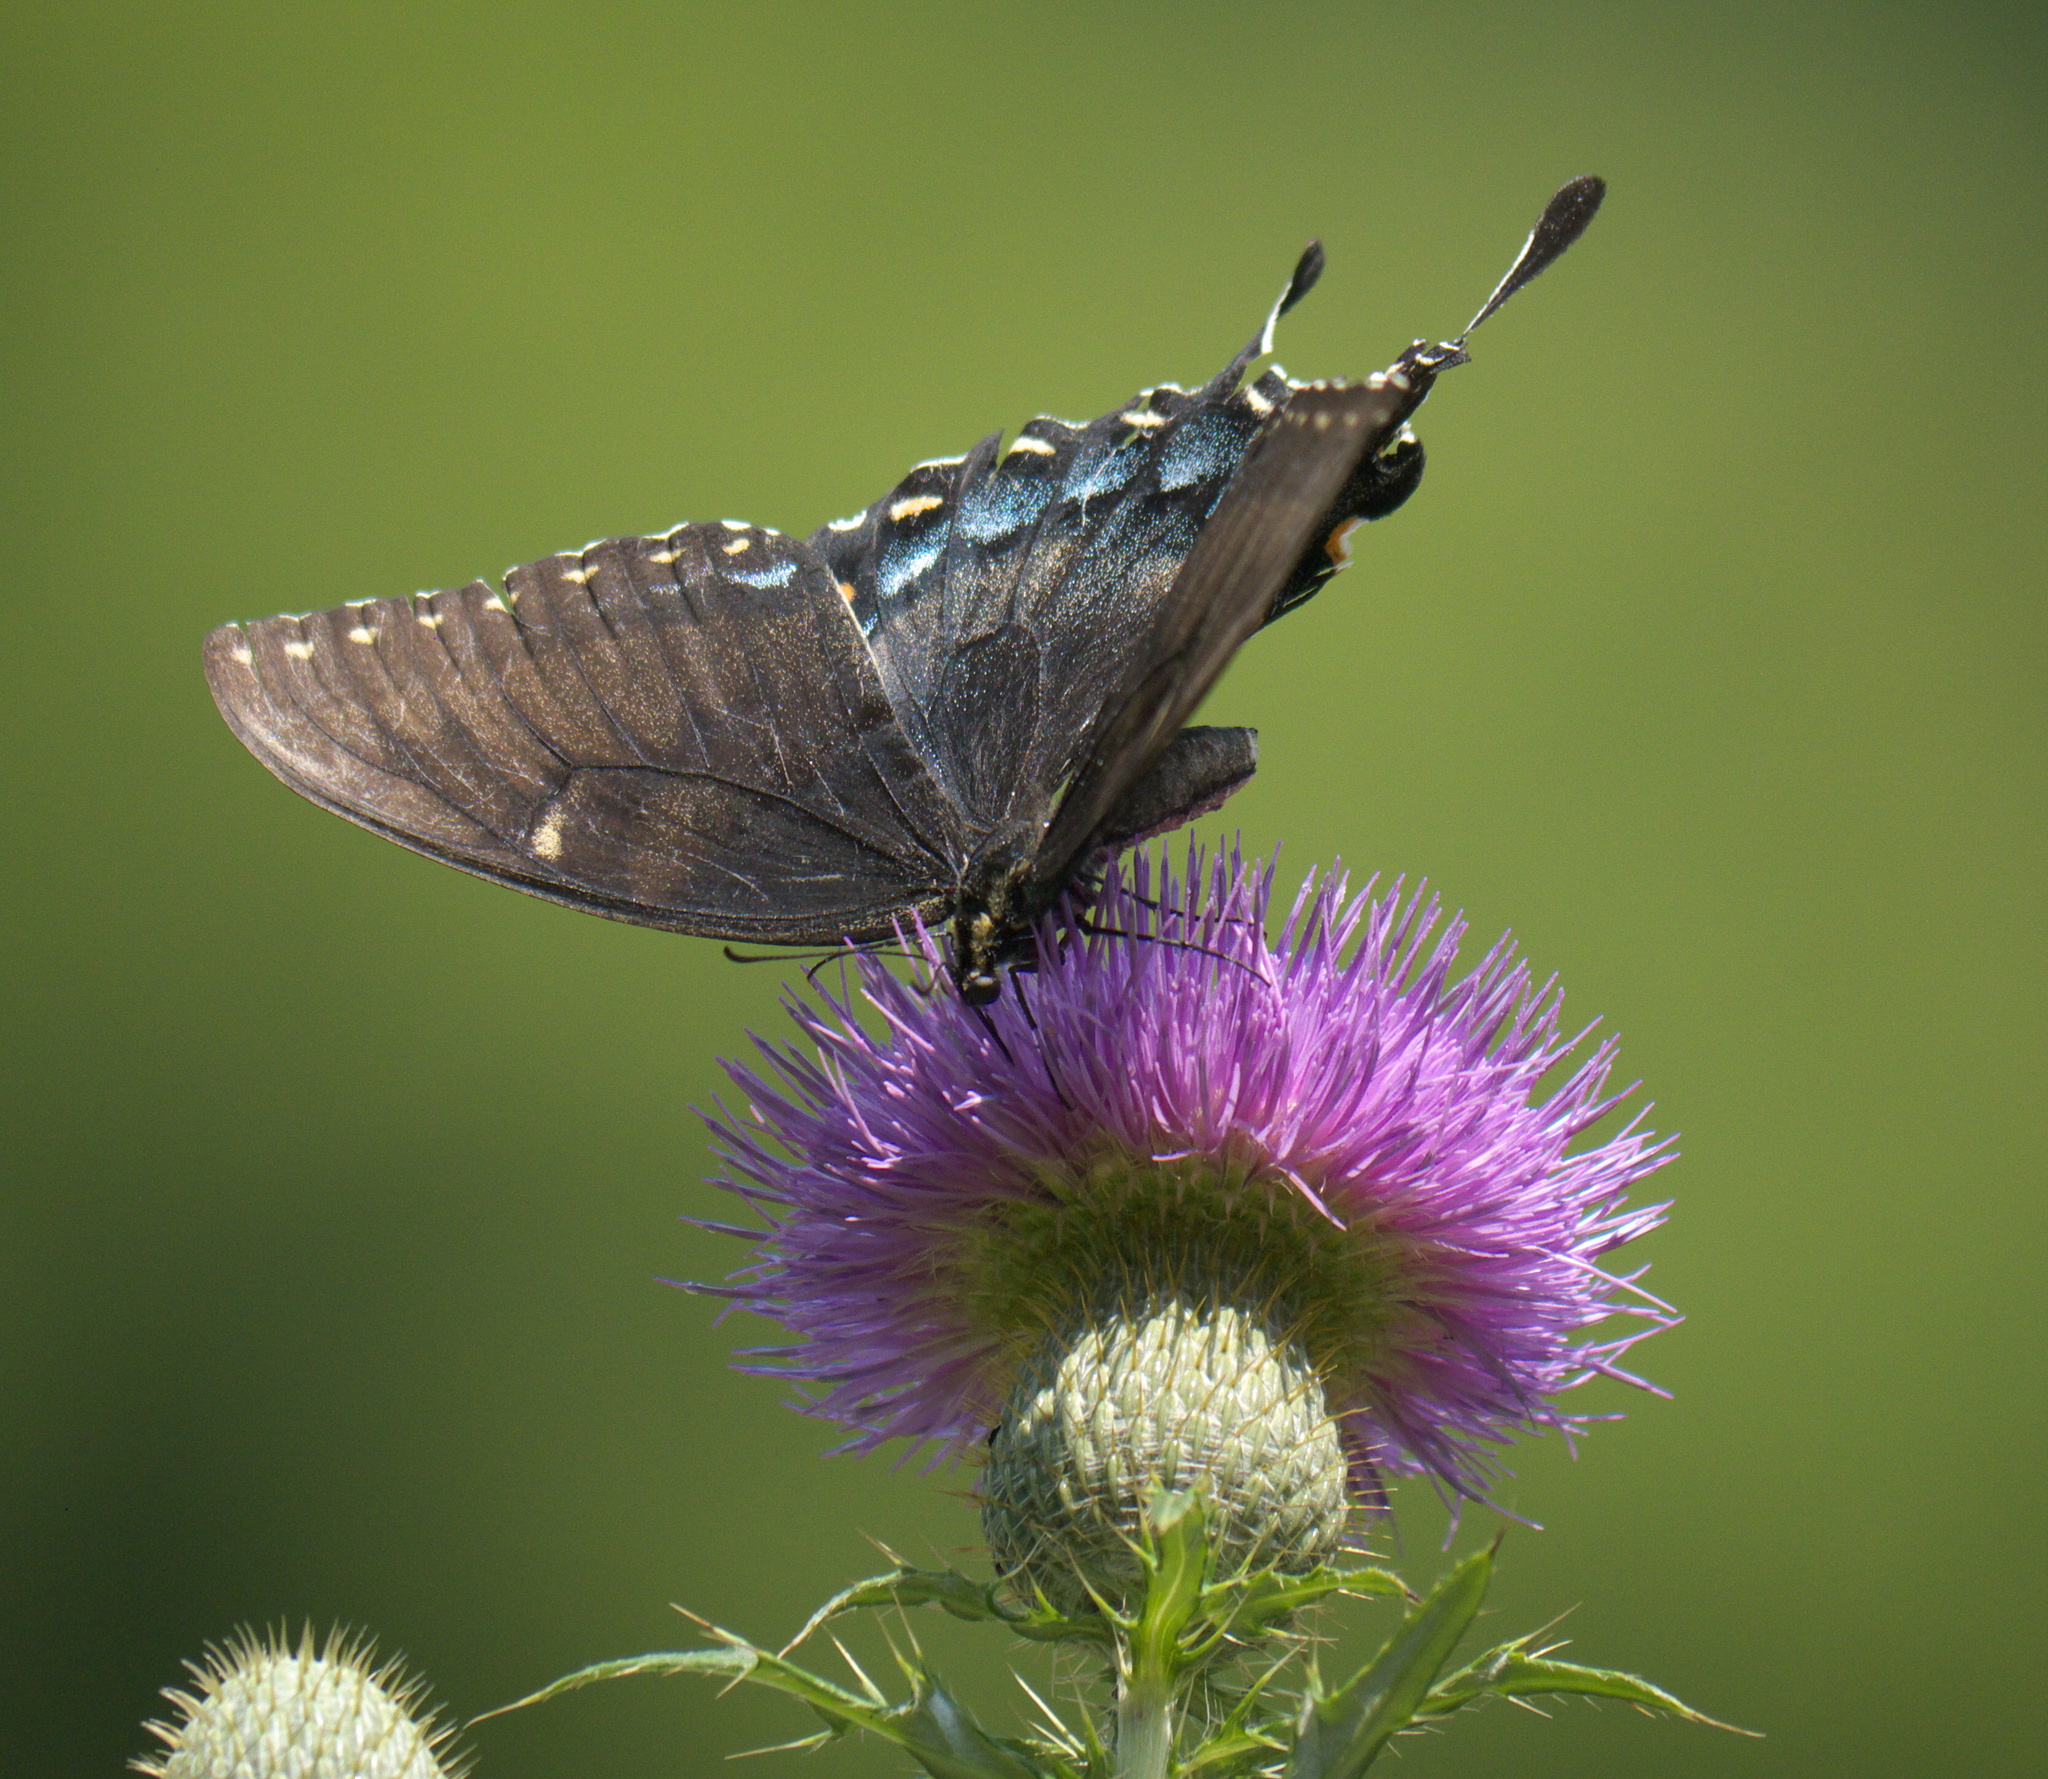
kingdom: Animalia
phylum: Arthropoda
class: Insecta
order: Lepidoptera
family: Papilionidae
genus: Papilio
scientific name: Papilio glaucus
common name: Tiger swallowtail
